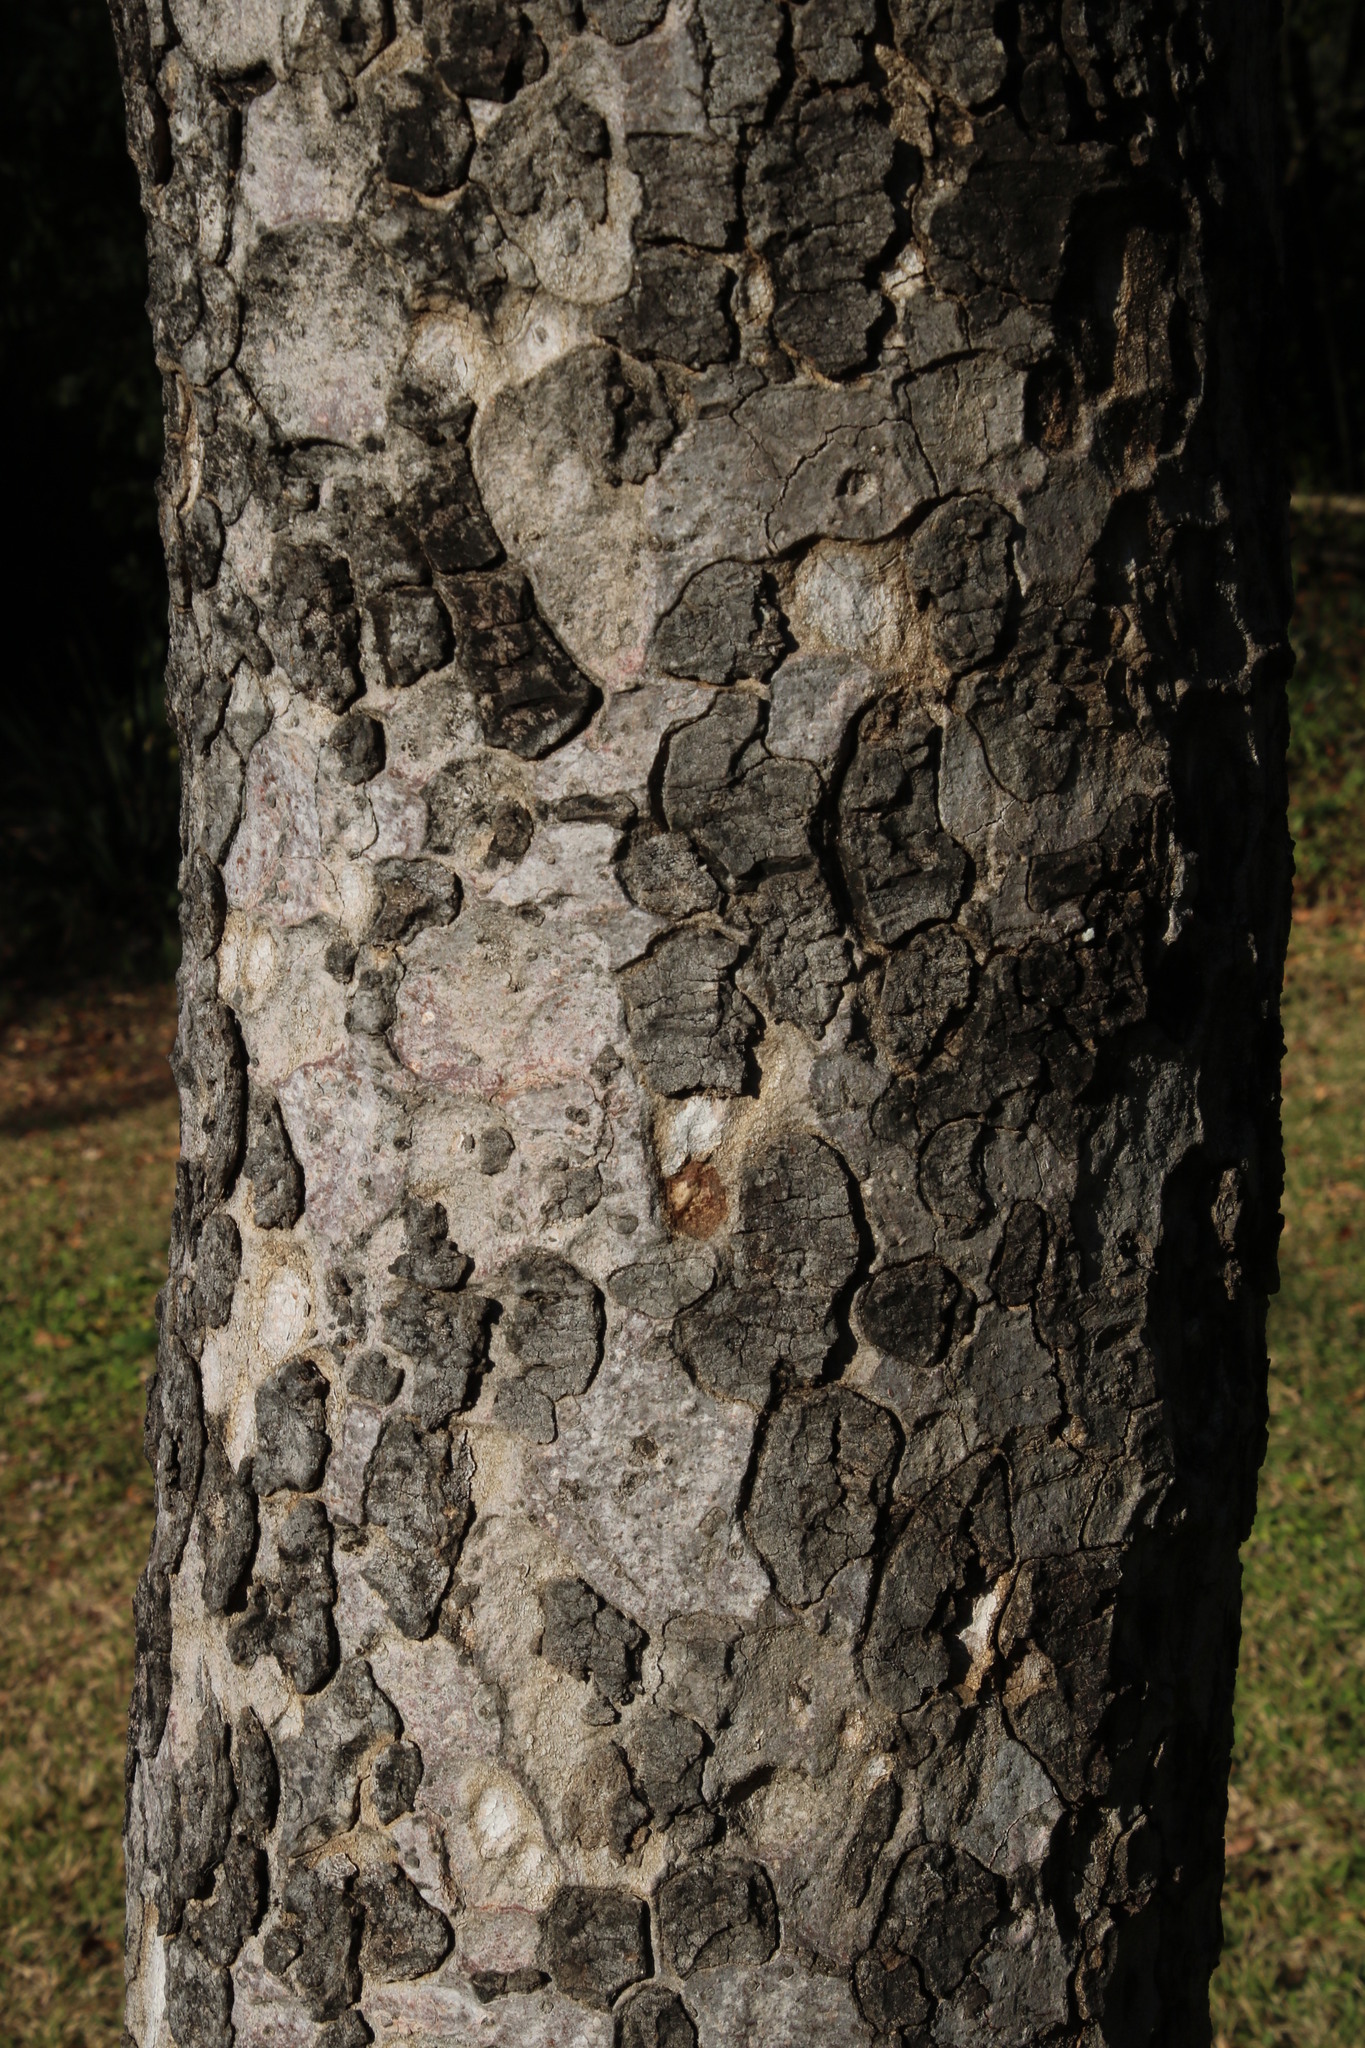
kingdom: Plantae
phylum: Tracheophyta
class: Magnoliopsida
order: Sapindales
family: Anacardiaceae
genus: Sclerocarya
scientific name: Sclerocarya birrea
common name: Marula
